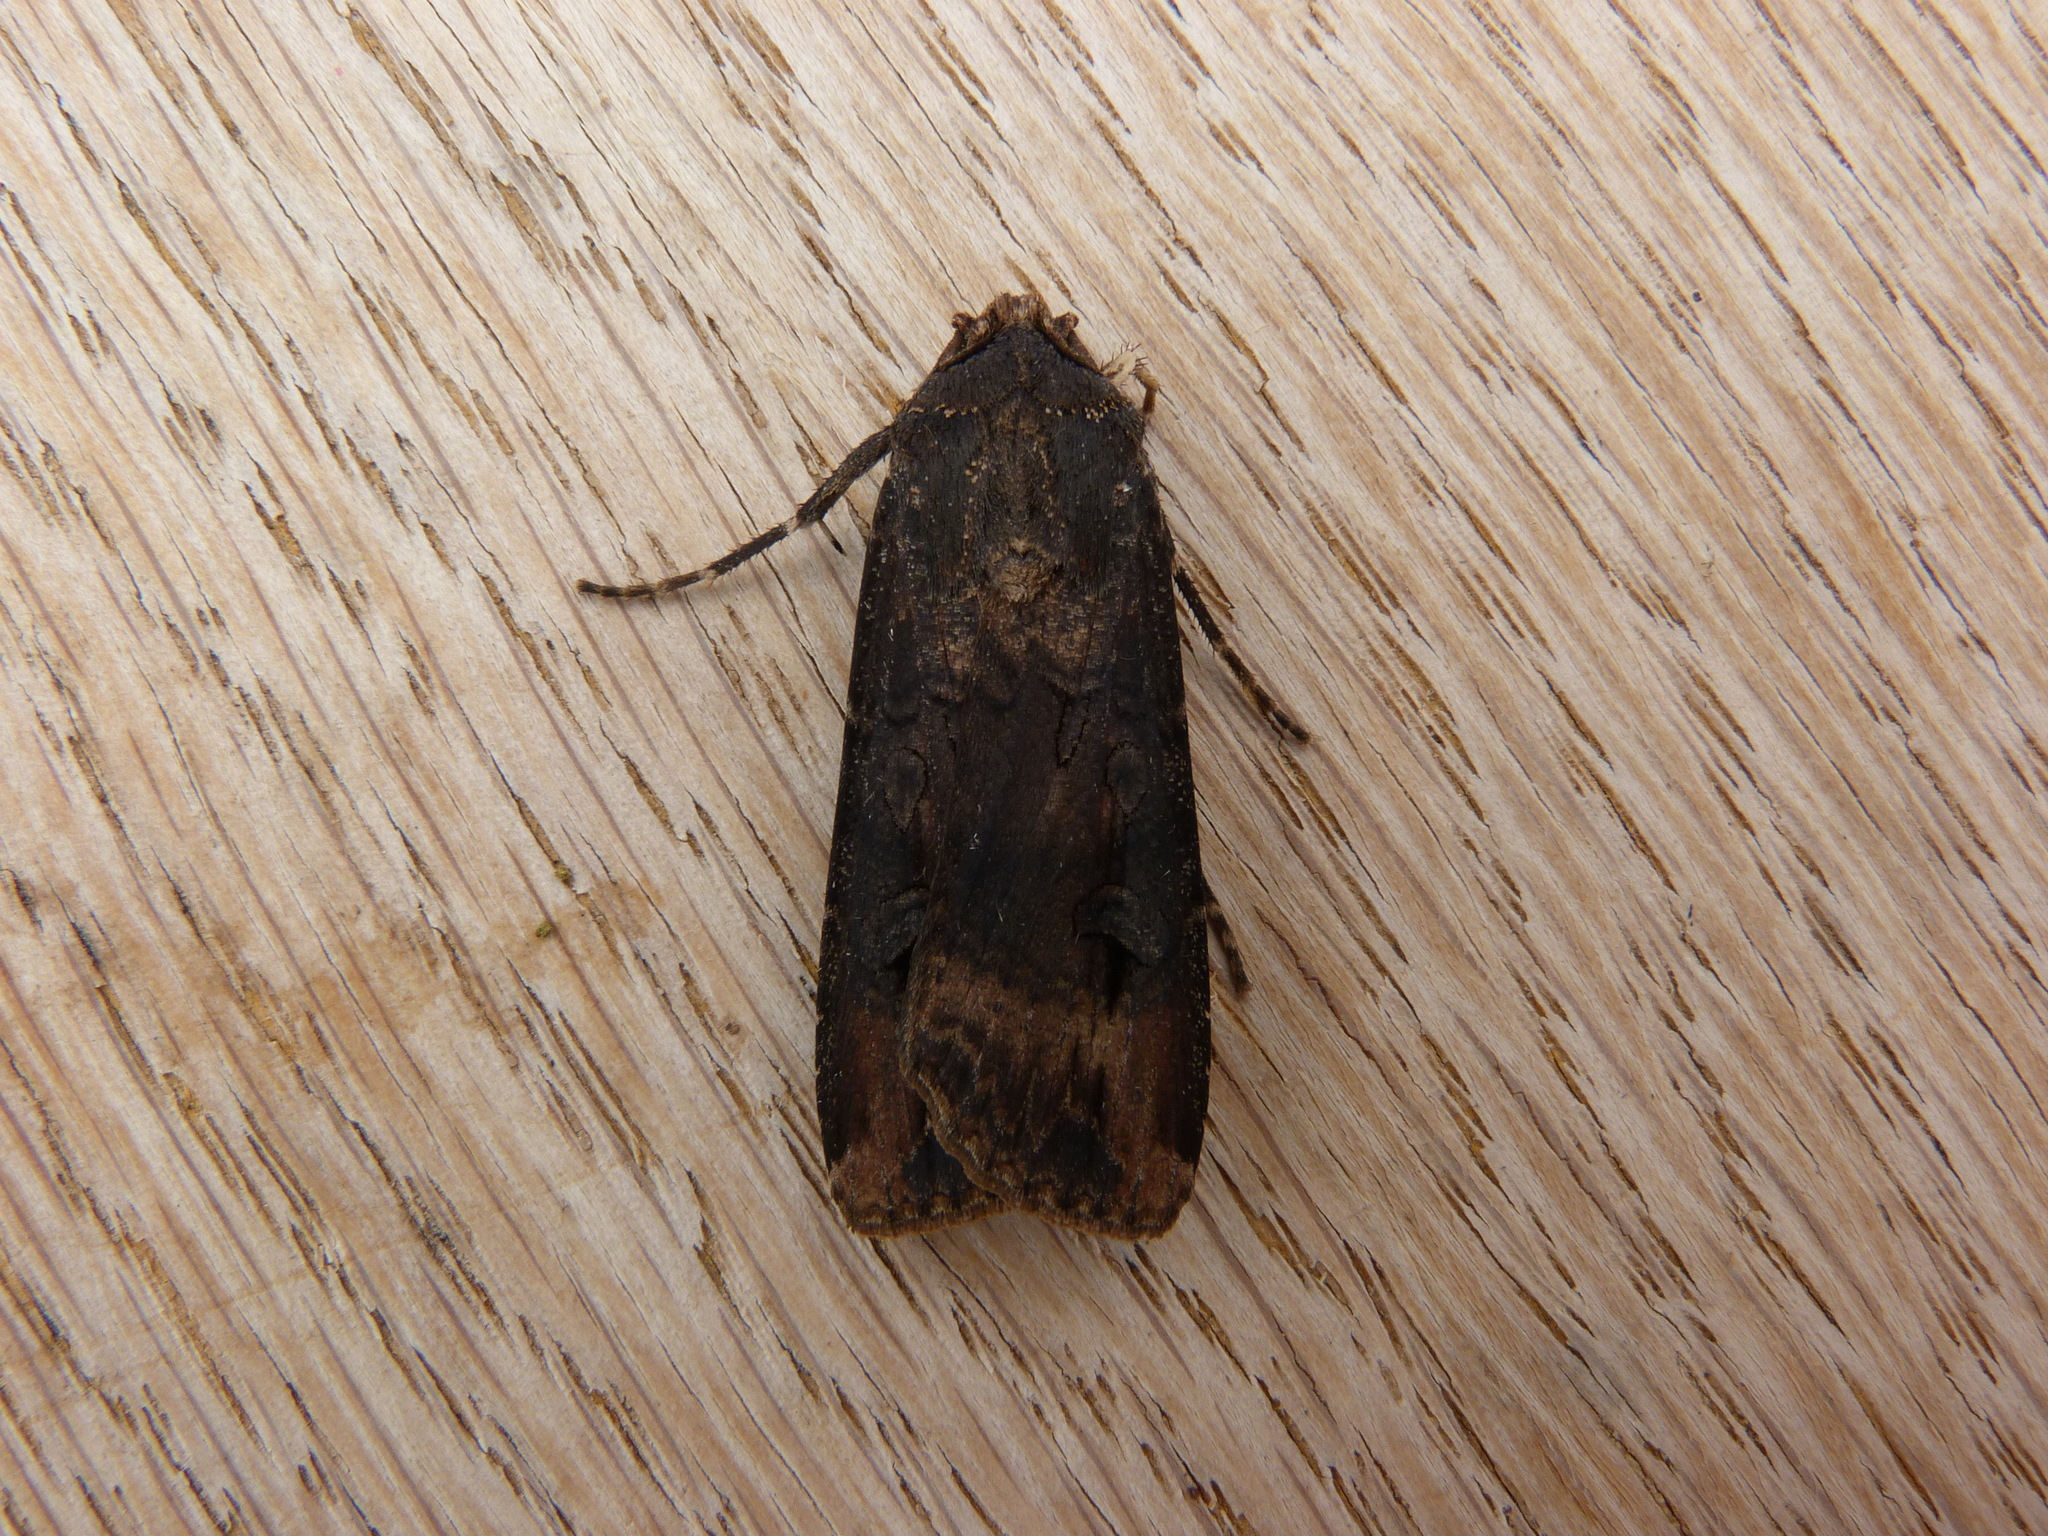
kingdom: Animalia
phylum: Arthropoda
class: Insecta
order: Lepidoptera
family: Noctuidae
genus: Agrotis
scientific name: Agrotis ipsilon
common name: Dark sword-grass
